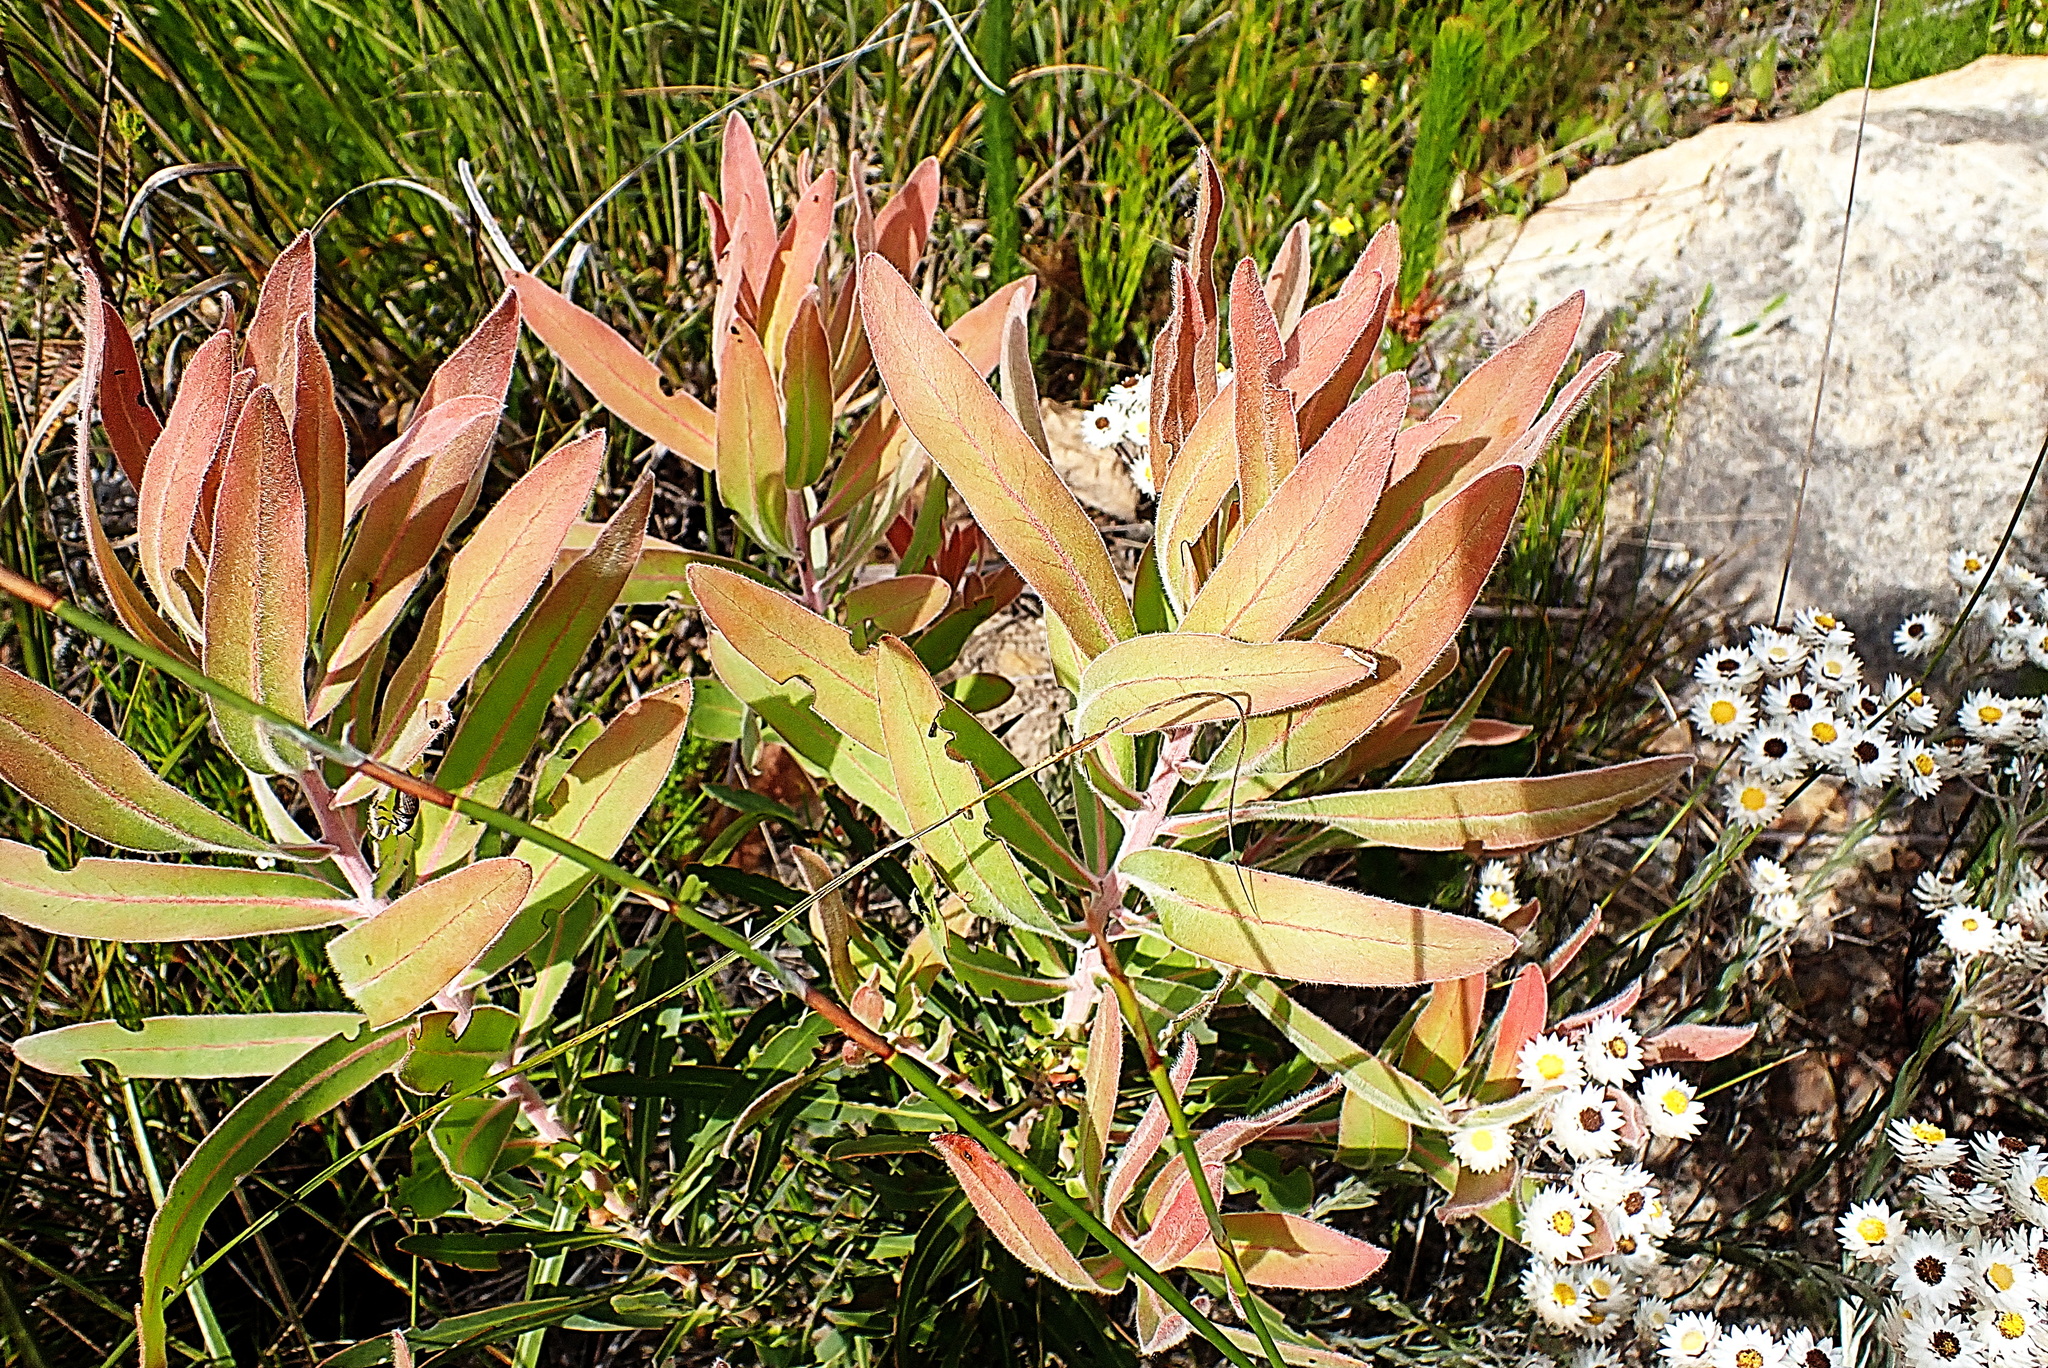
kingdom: Plantae
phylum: Tracheophyta
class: Magnoliopsida
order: Proteales
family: Proteaceae
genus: Protea
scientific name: Protea neriifolia
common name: Blue sugarbush
